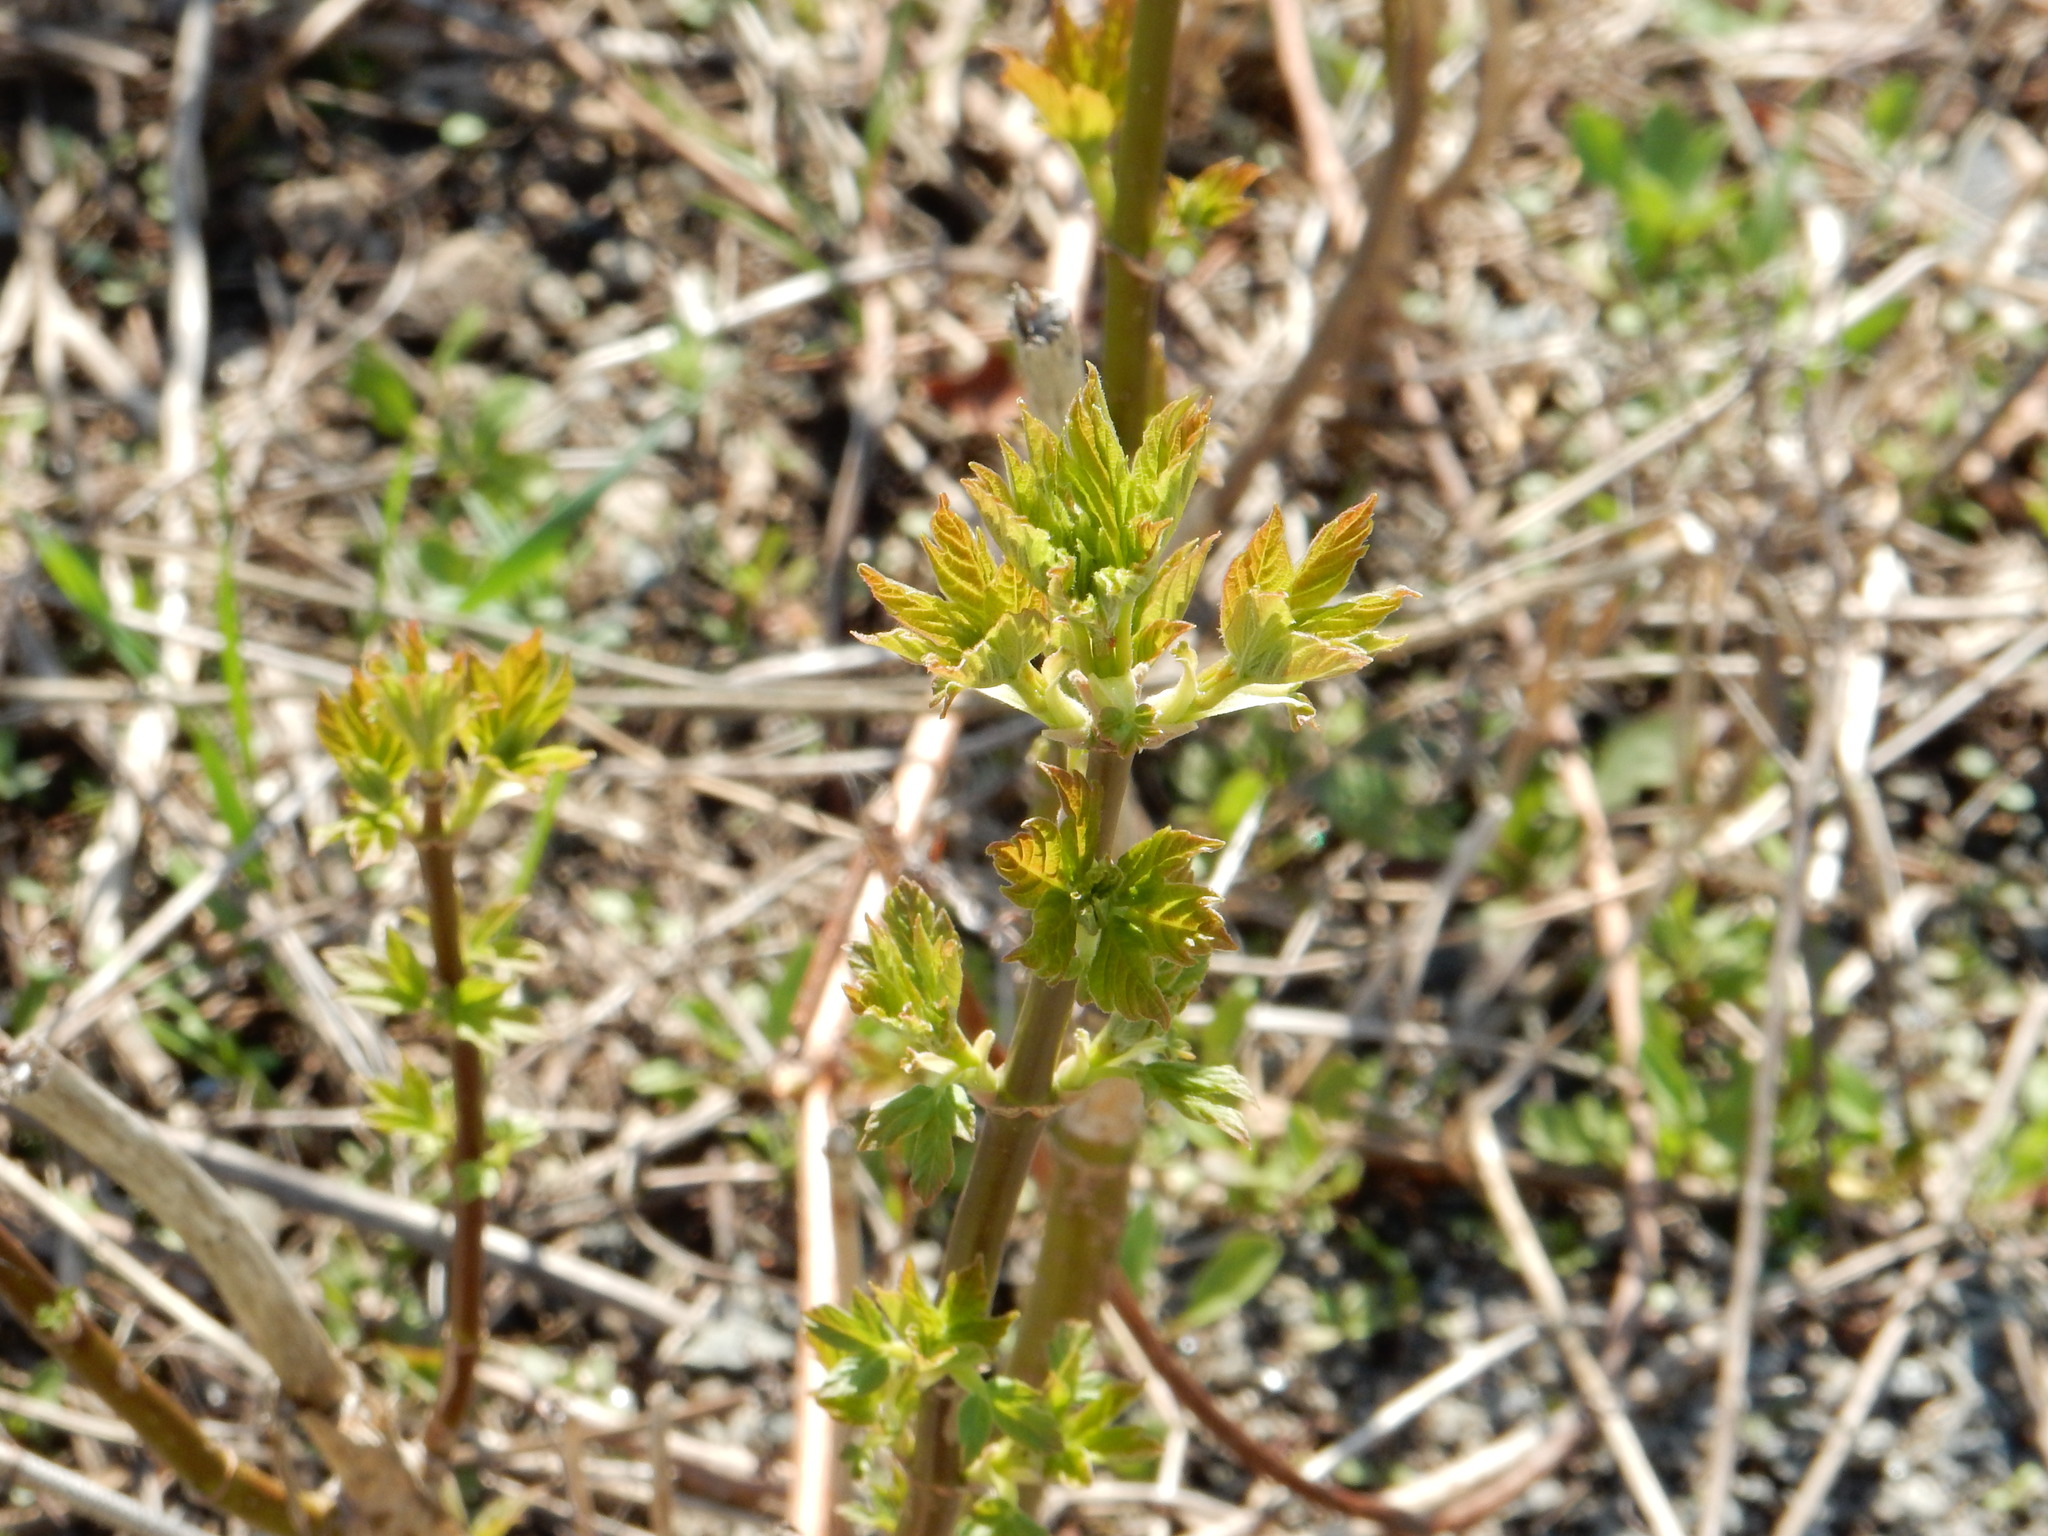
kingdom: Plantae
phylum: Tracheophyta
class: Magnoliopsida
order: Caryophyllales
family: Polygonaceae
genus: Reynoutria
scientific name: Reynoutria japonica
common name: Japanese knotweed
